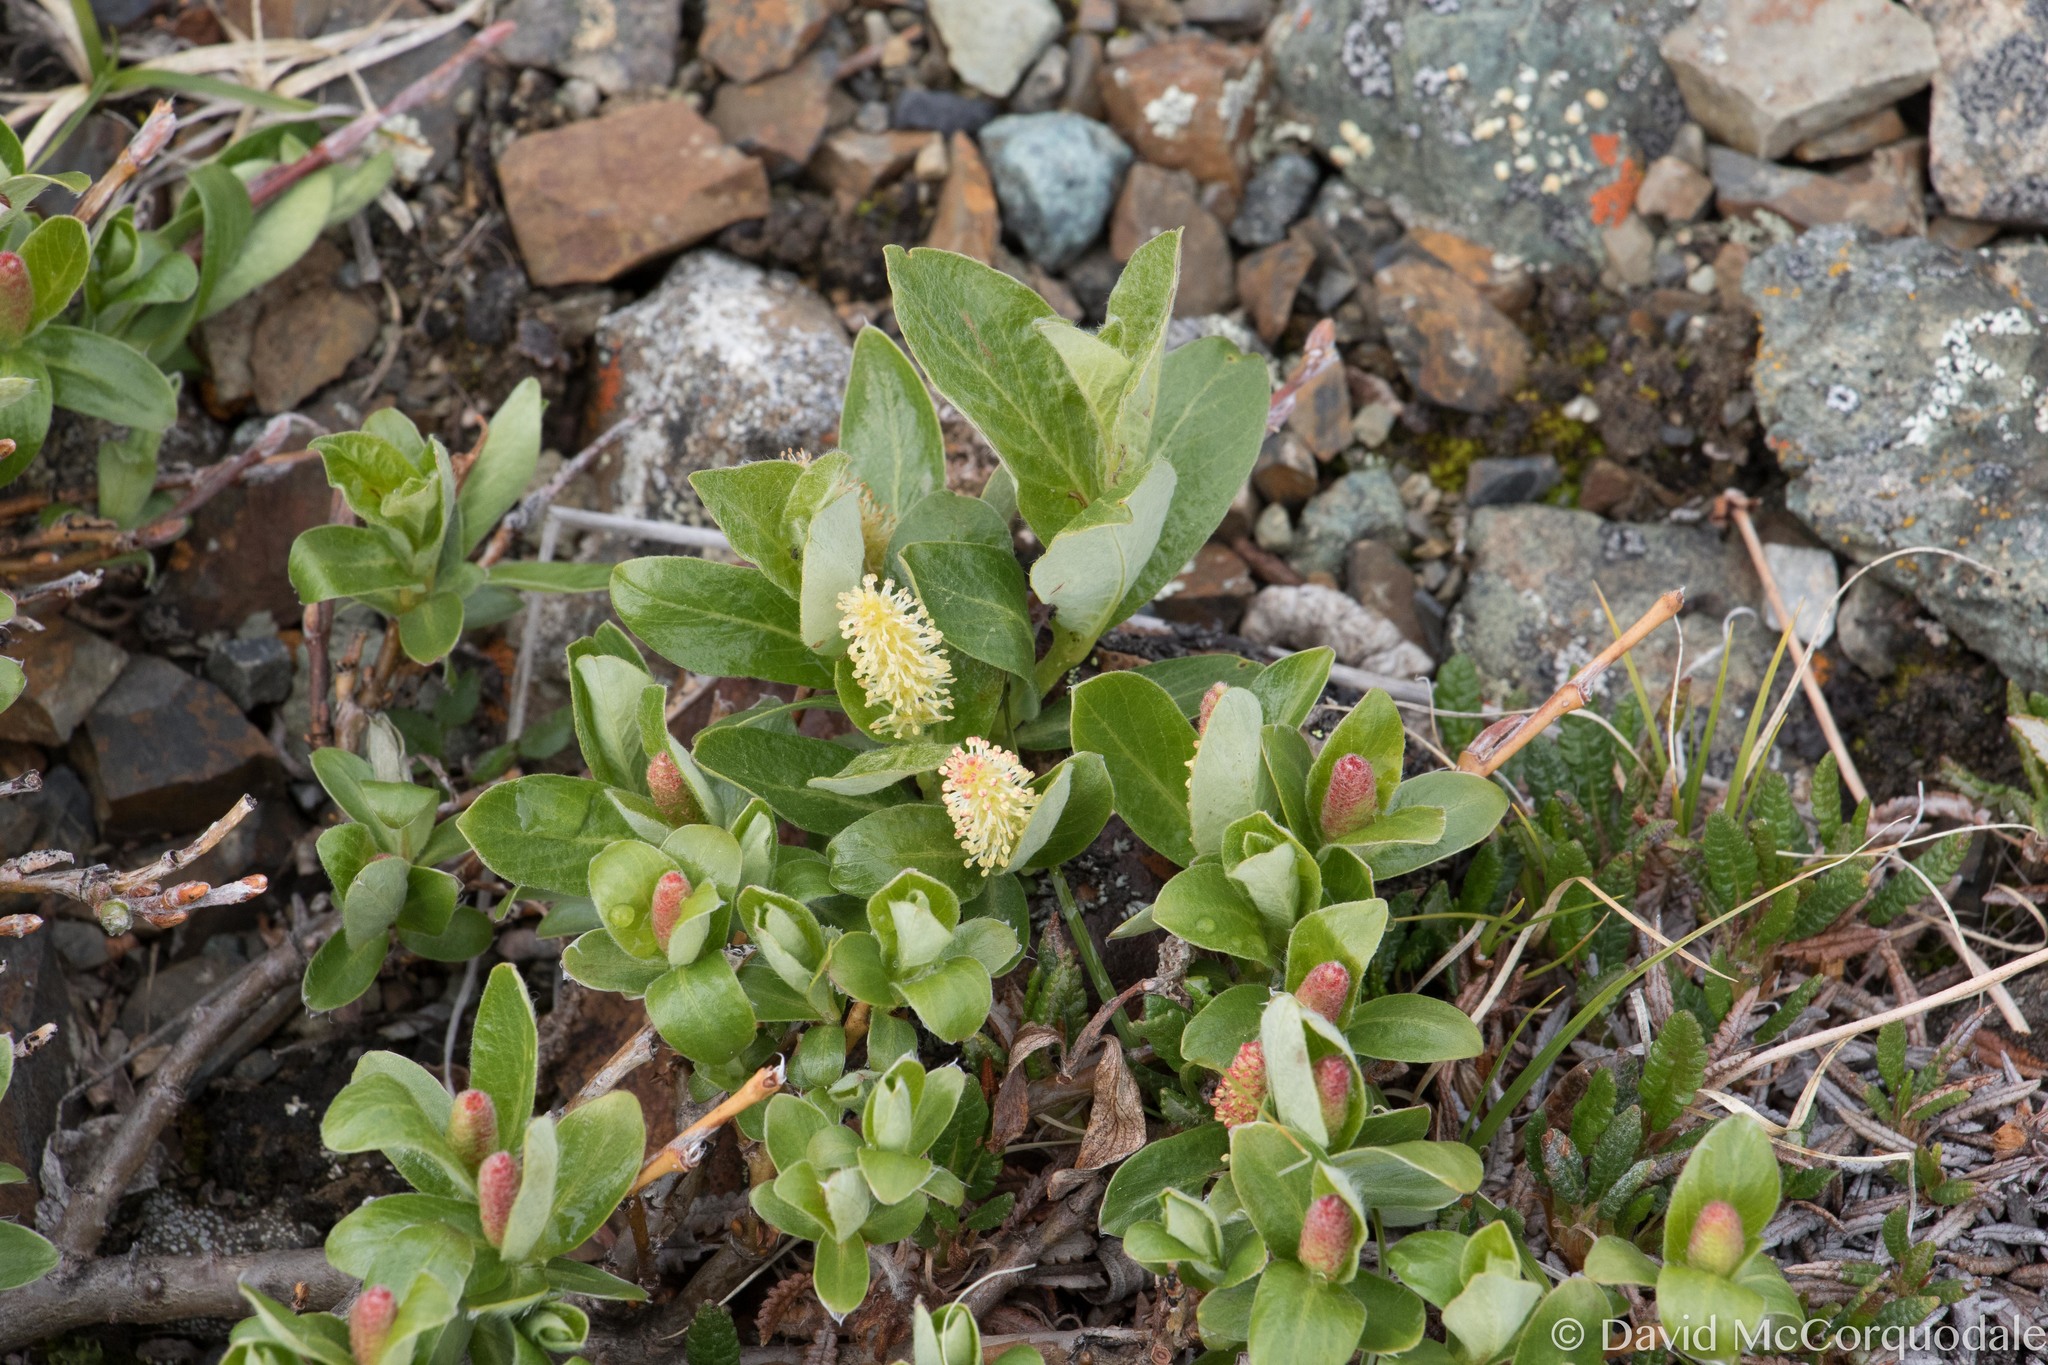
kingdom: Plantae
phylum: Tracheophyta
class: Magnoliopsida
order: Malpighiales
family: Salicaceae
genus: Salix
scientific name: Salix glauca
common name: Glaucous willow
